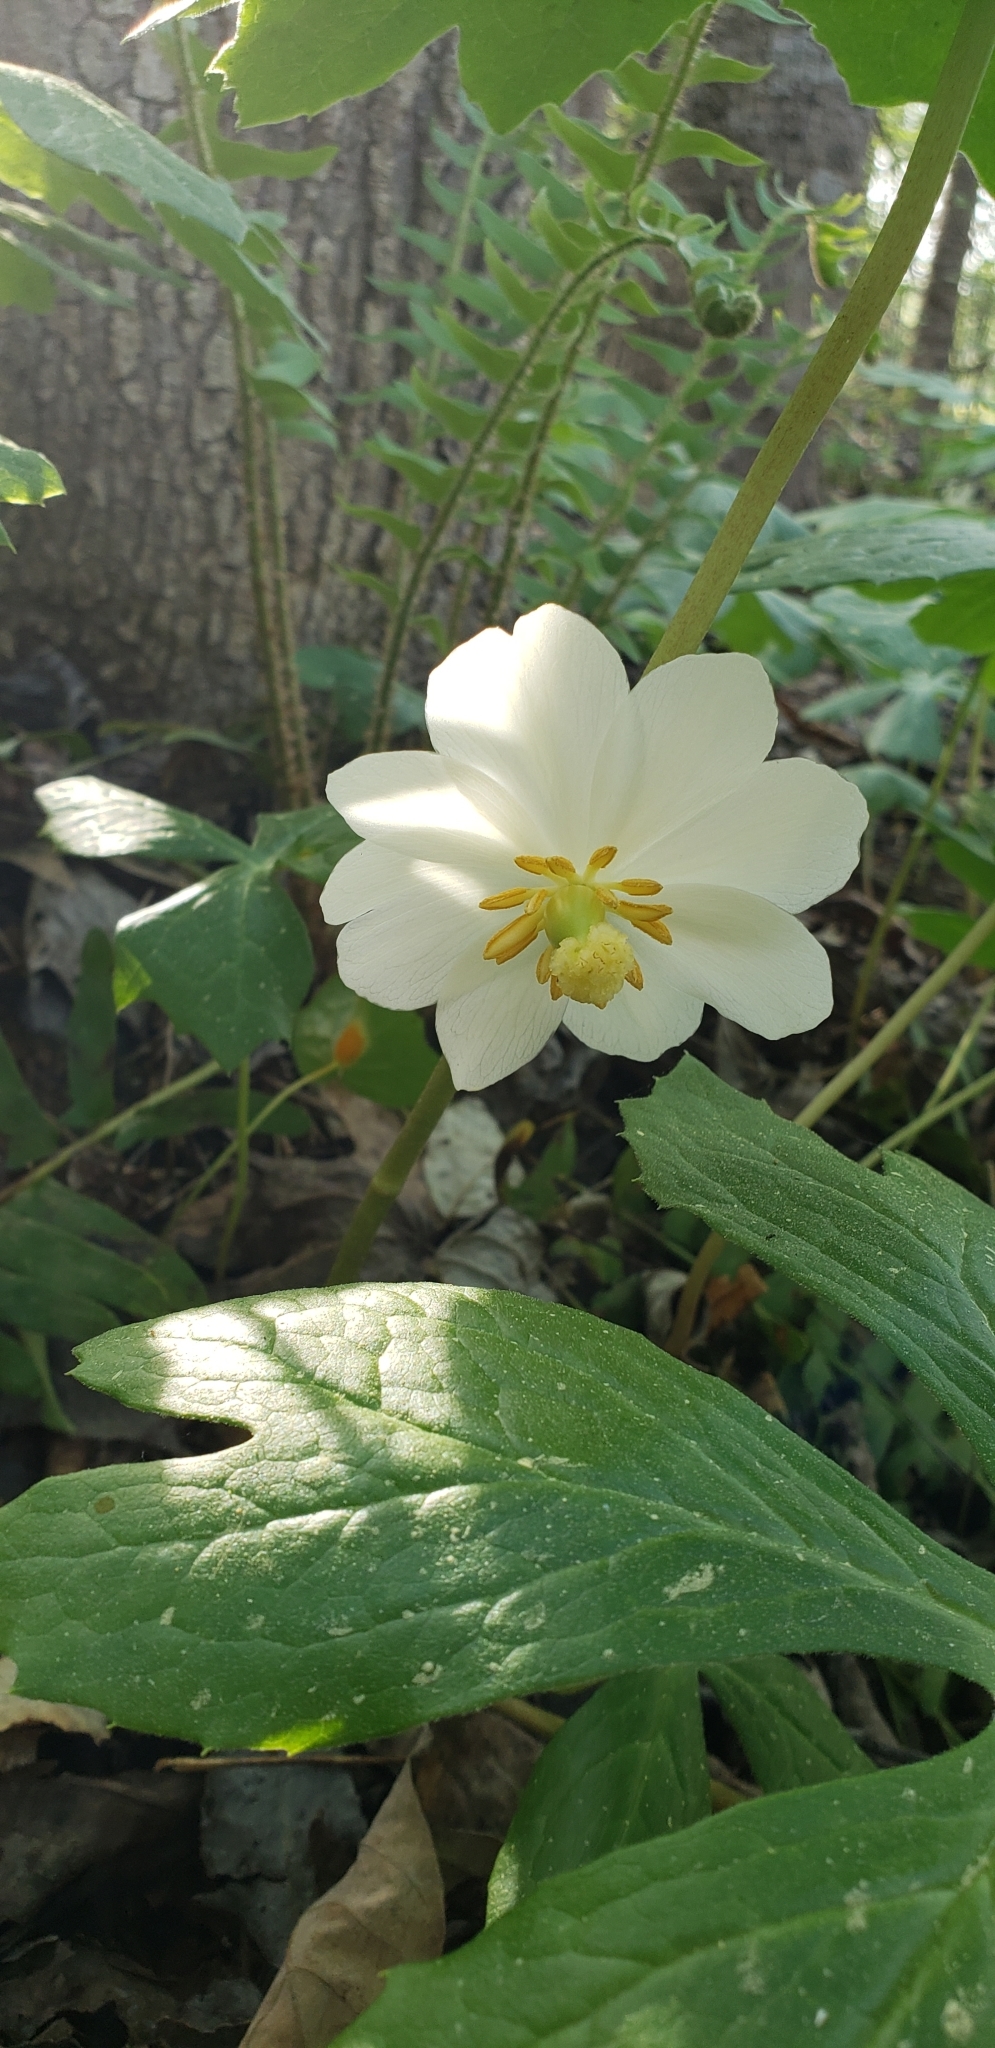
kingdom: Plantae
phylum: Tracheophyta
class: Magnoliopsida
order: Ranunculales
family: Berberidaceae
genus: Podophyllum
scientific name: Podophyllum peltatum
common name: Wild mandrake
